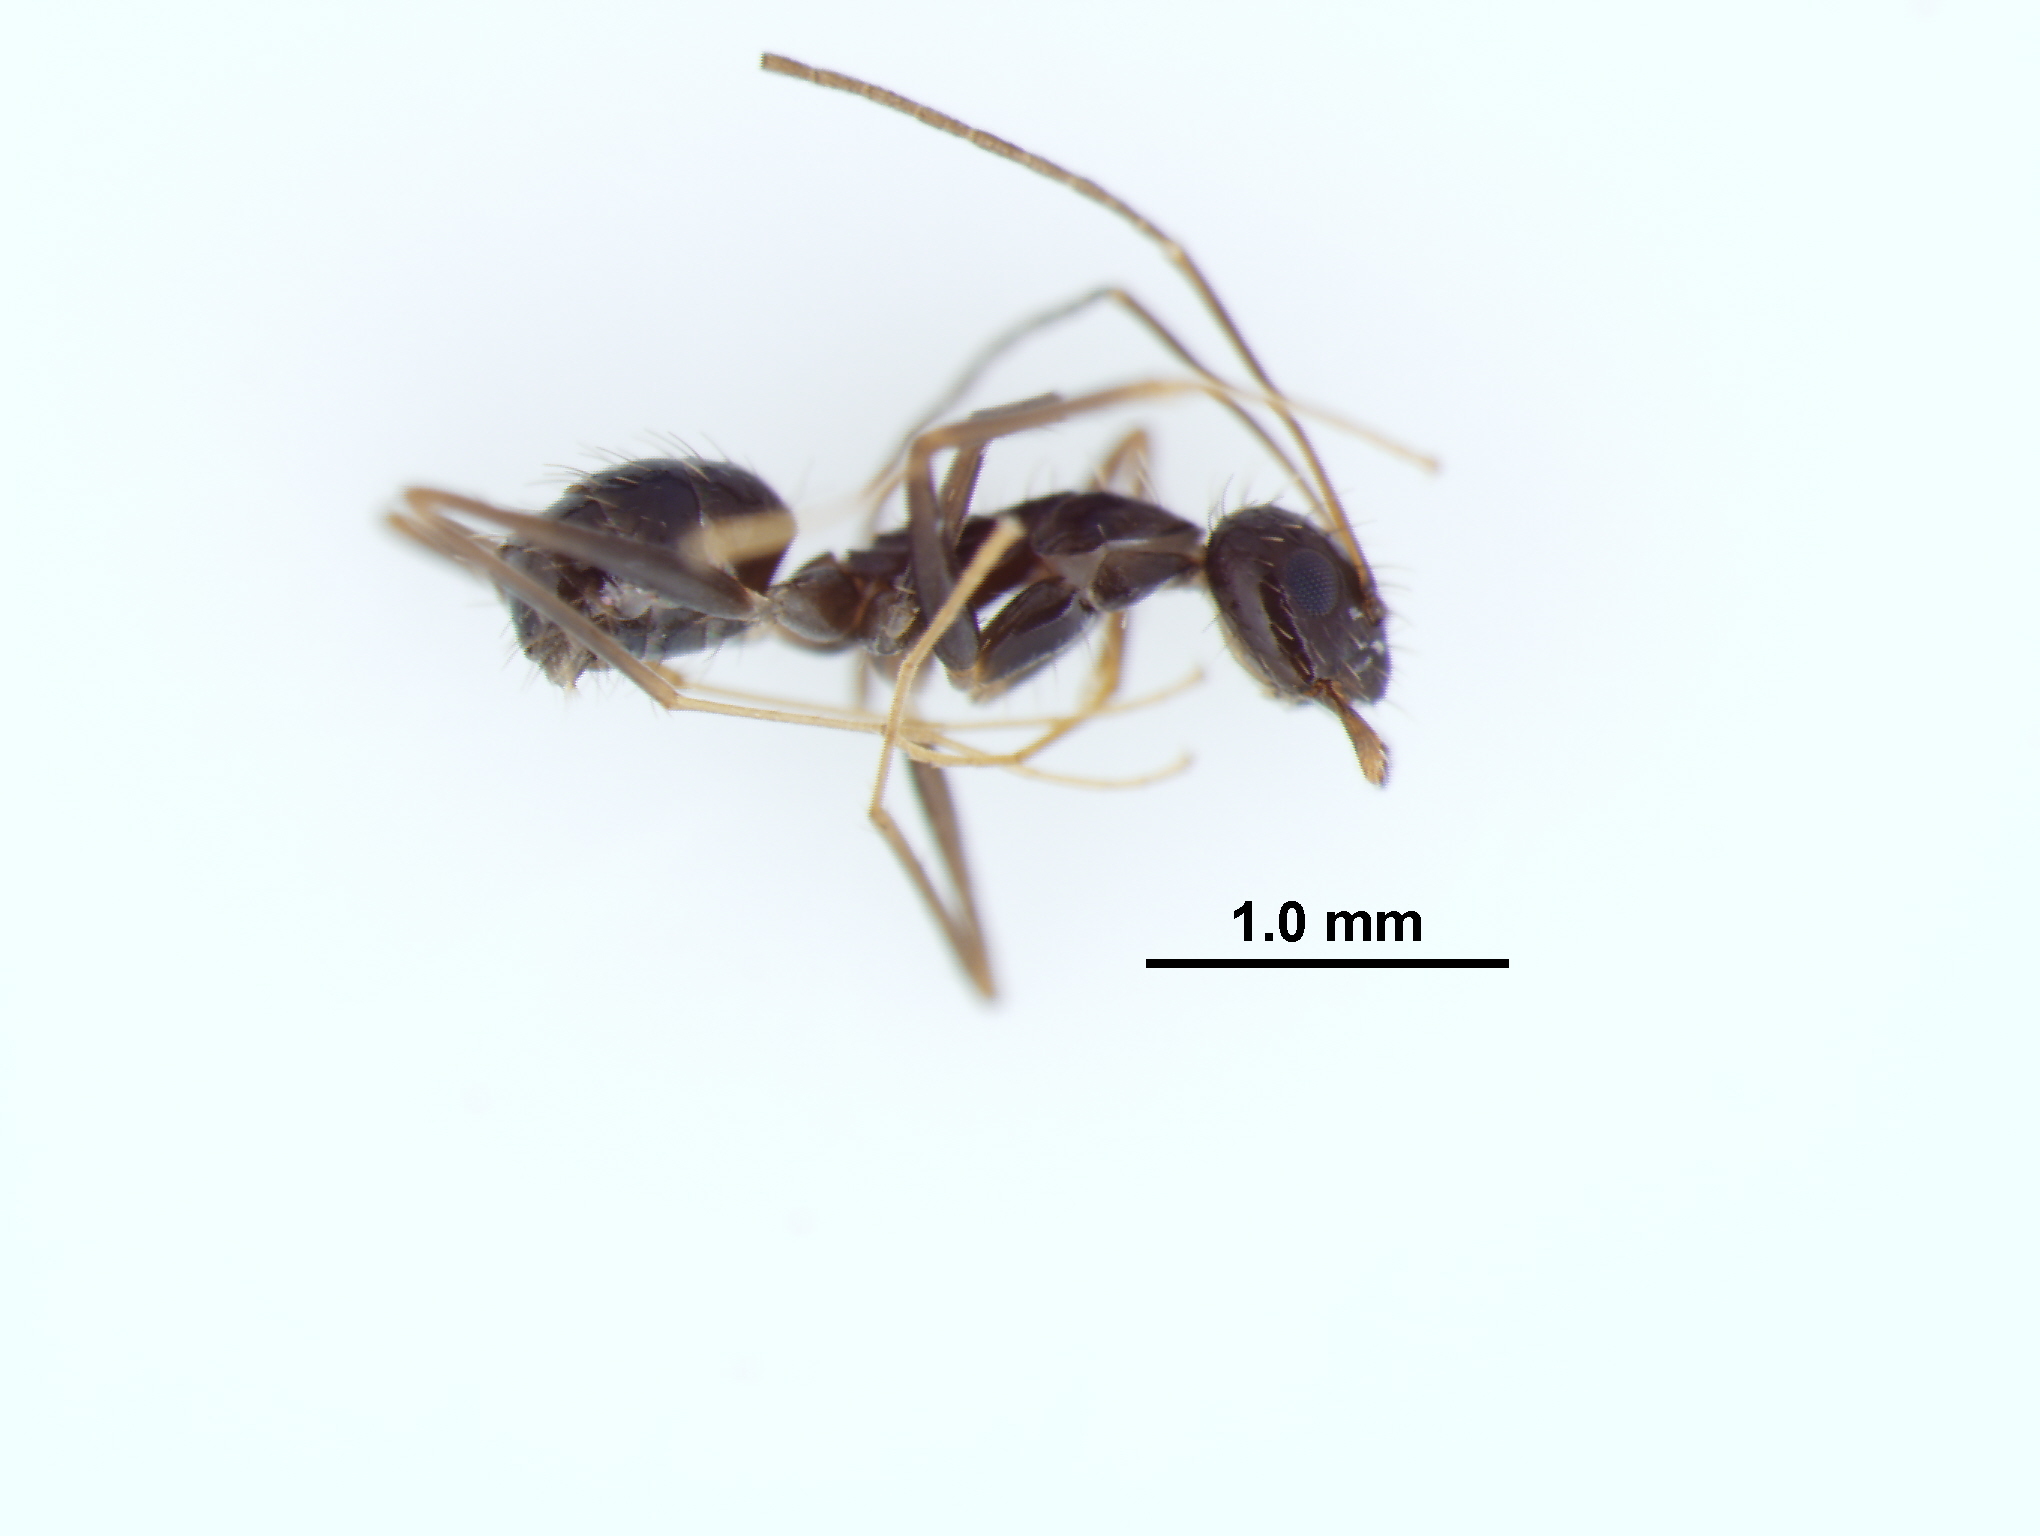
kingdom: Animalia
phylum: Arthropoda
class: Insecta
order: Hymenoptera
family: Formicidae
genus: Paratrechina
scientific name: Paratrechina longicornis
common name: Longhorned crazy ant
